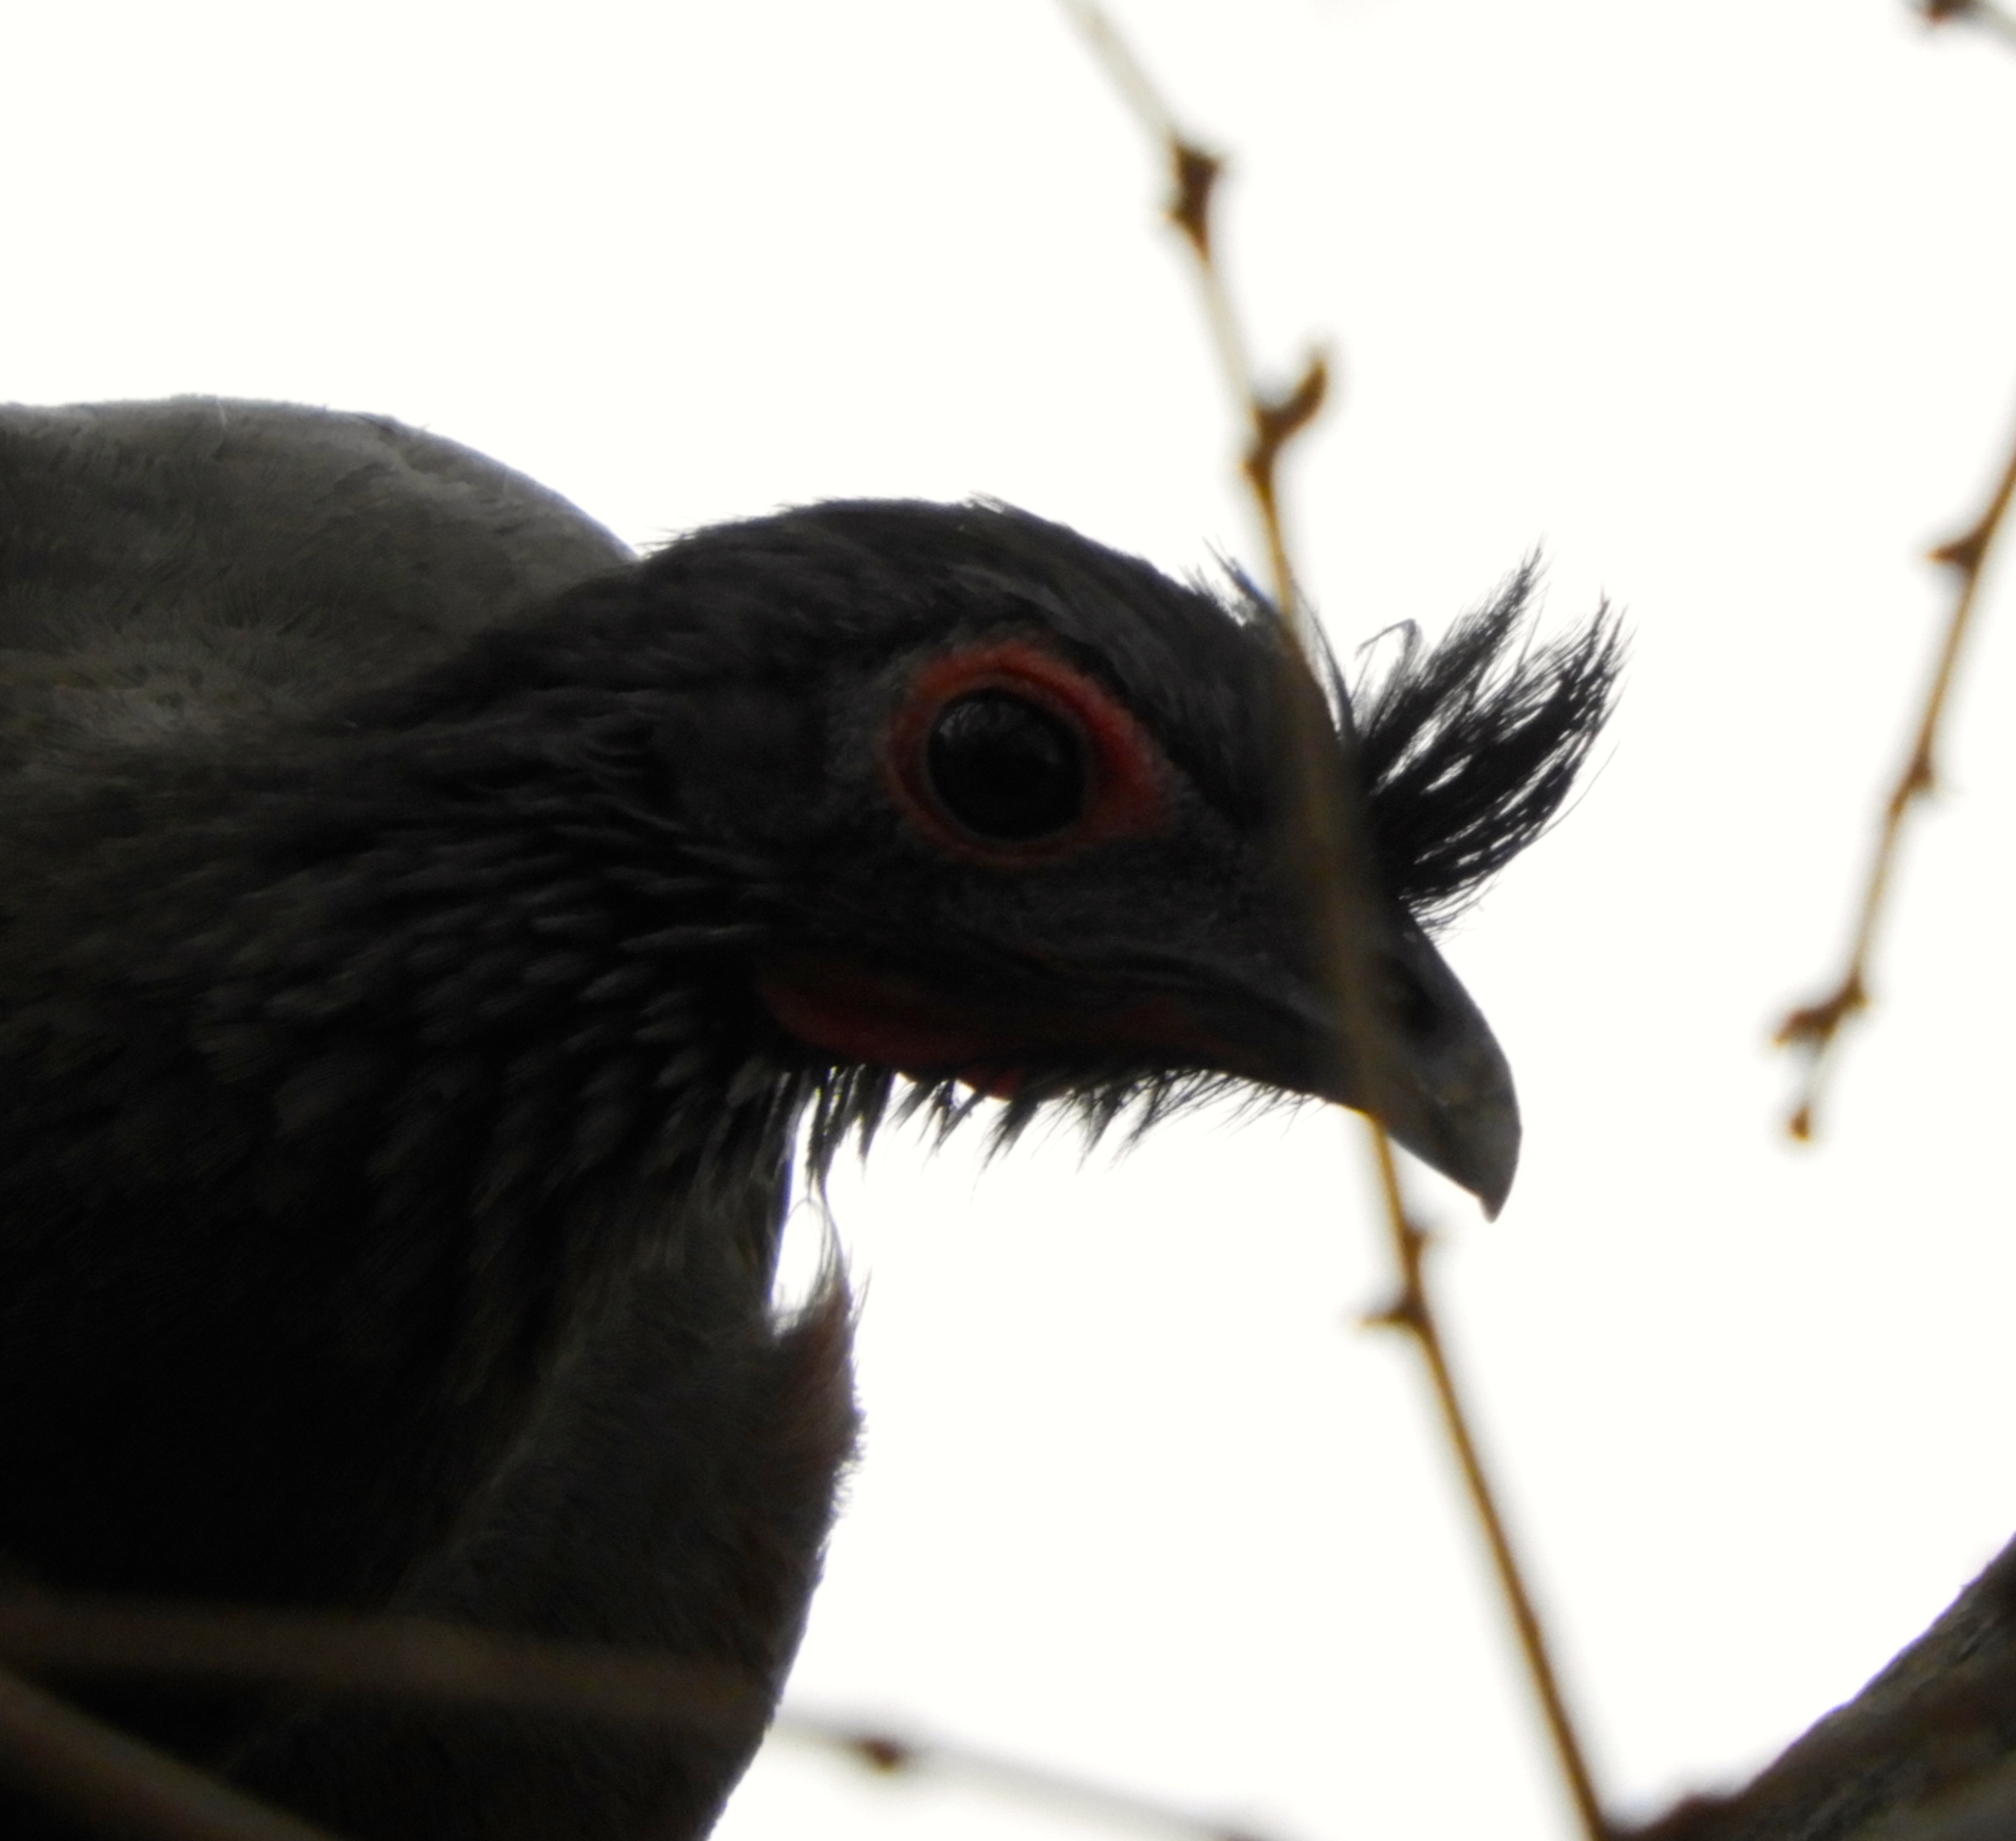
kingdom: Animalia
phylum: Chordata
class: Aves
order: Galliformes
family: Cracidae
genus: Ortalis
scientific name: Ortalis wagleri
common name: Rufous-bellied chachalaca
